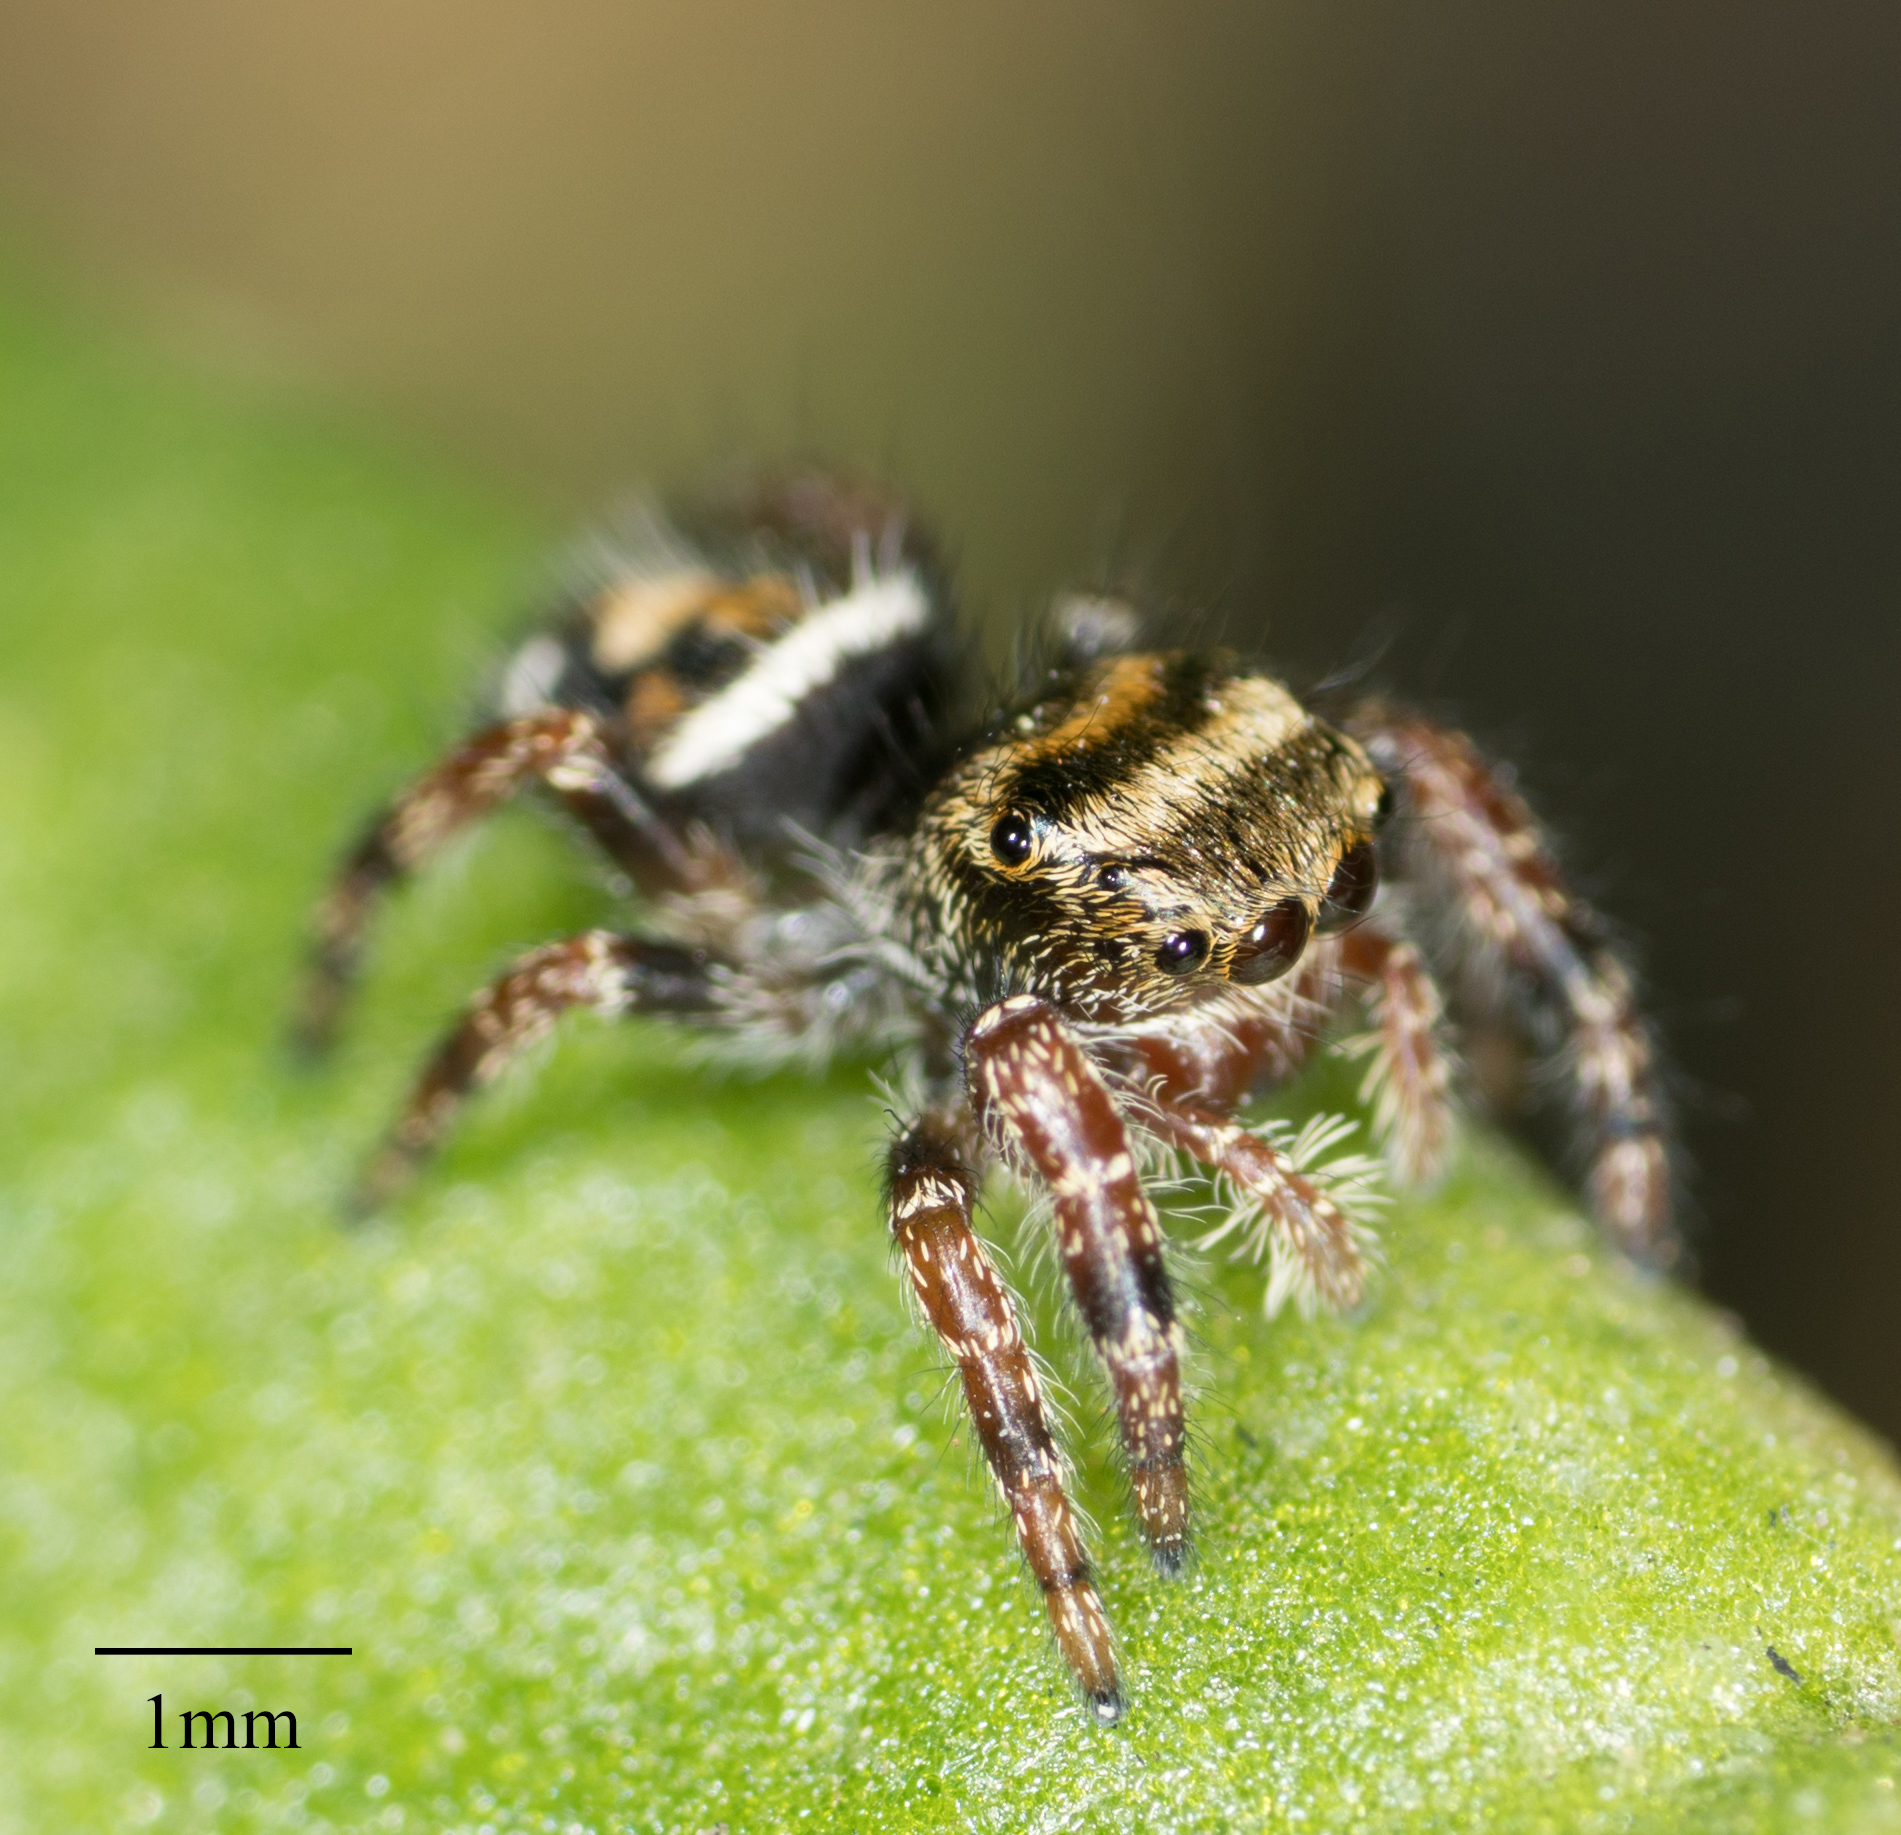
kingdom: Animalia
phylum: Arthropoda
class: Arachnida
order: Araneae
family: Salticidae
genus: Phidippus
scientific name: Phidippus audax
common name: Bold jumper
